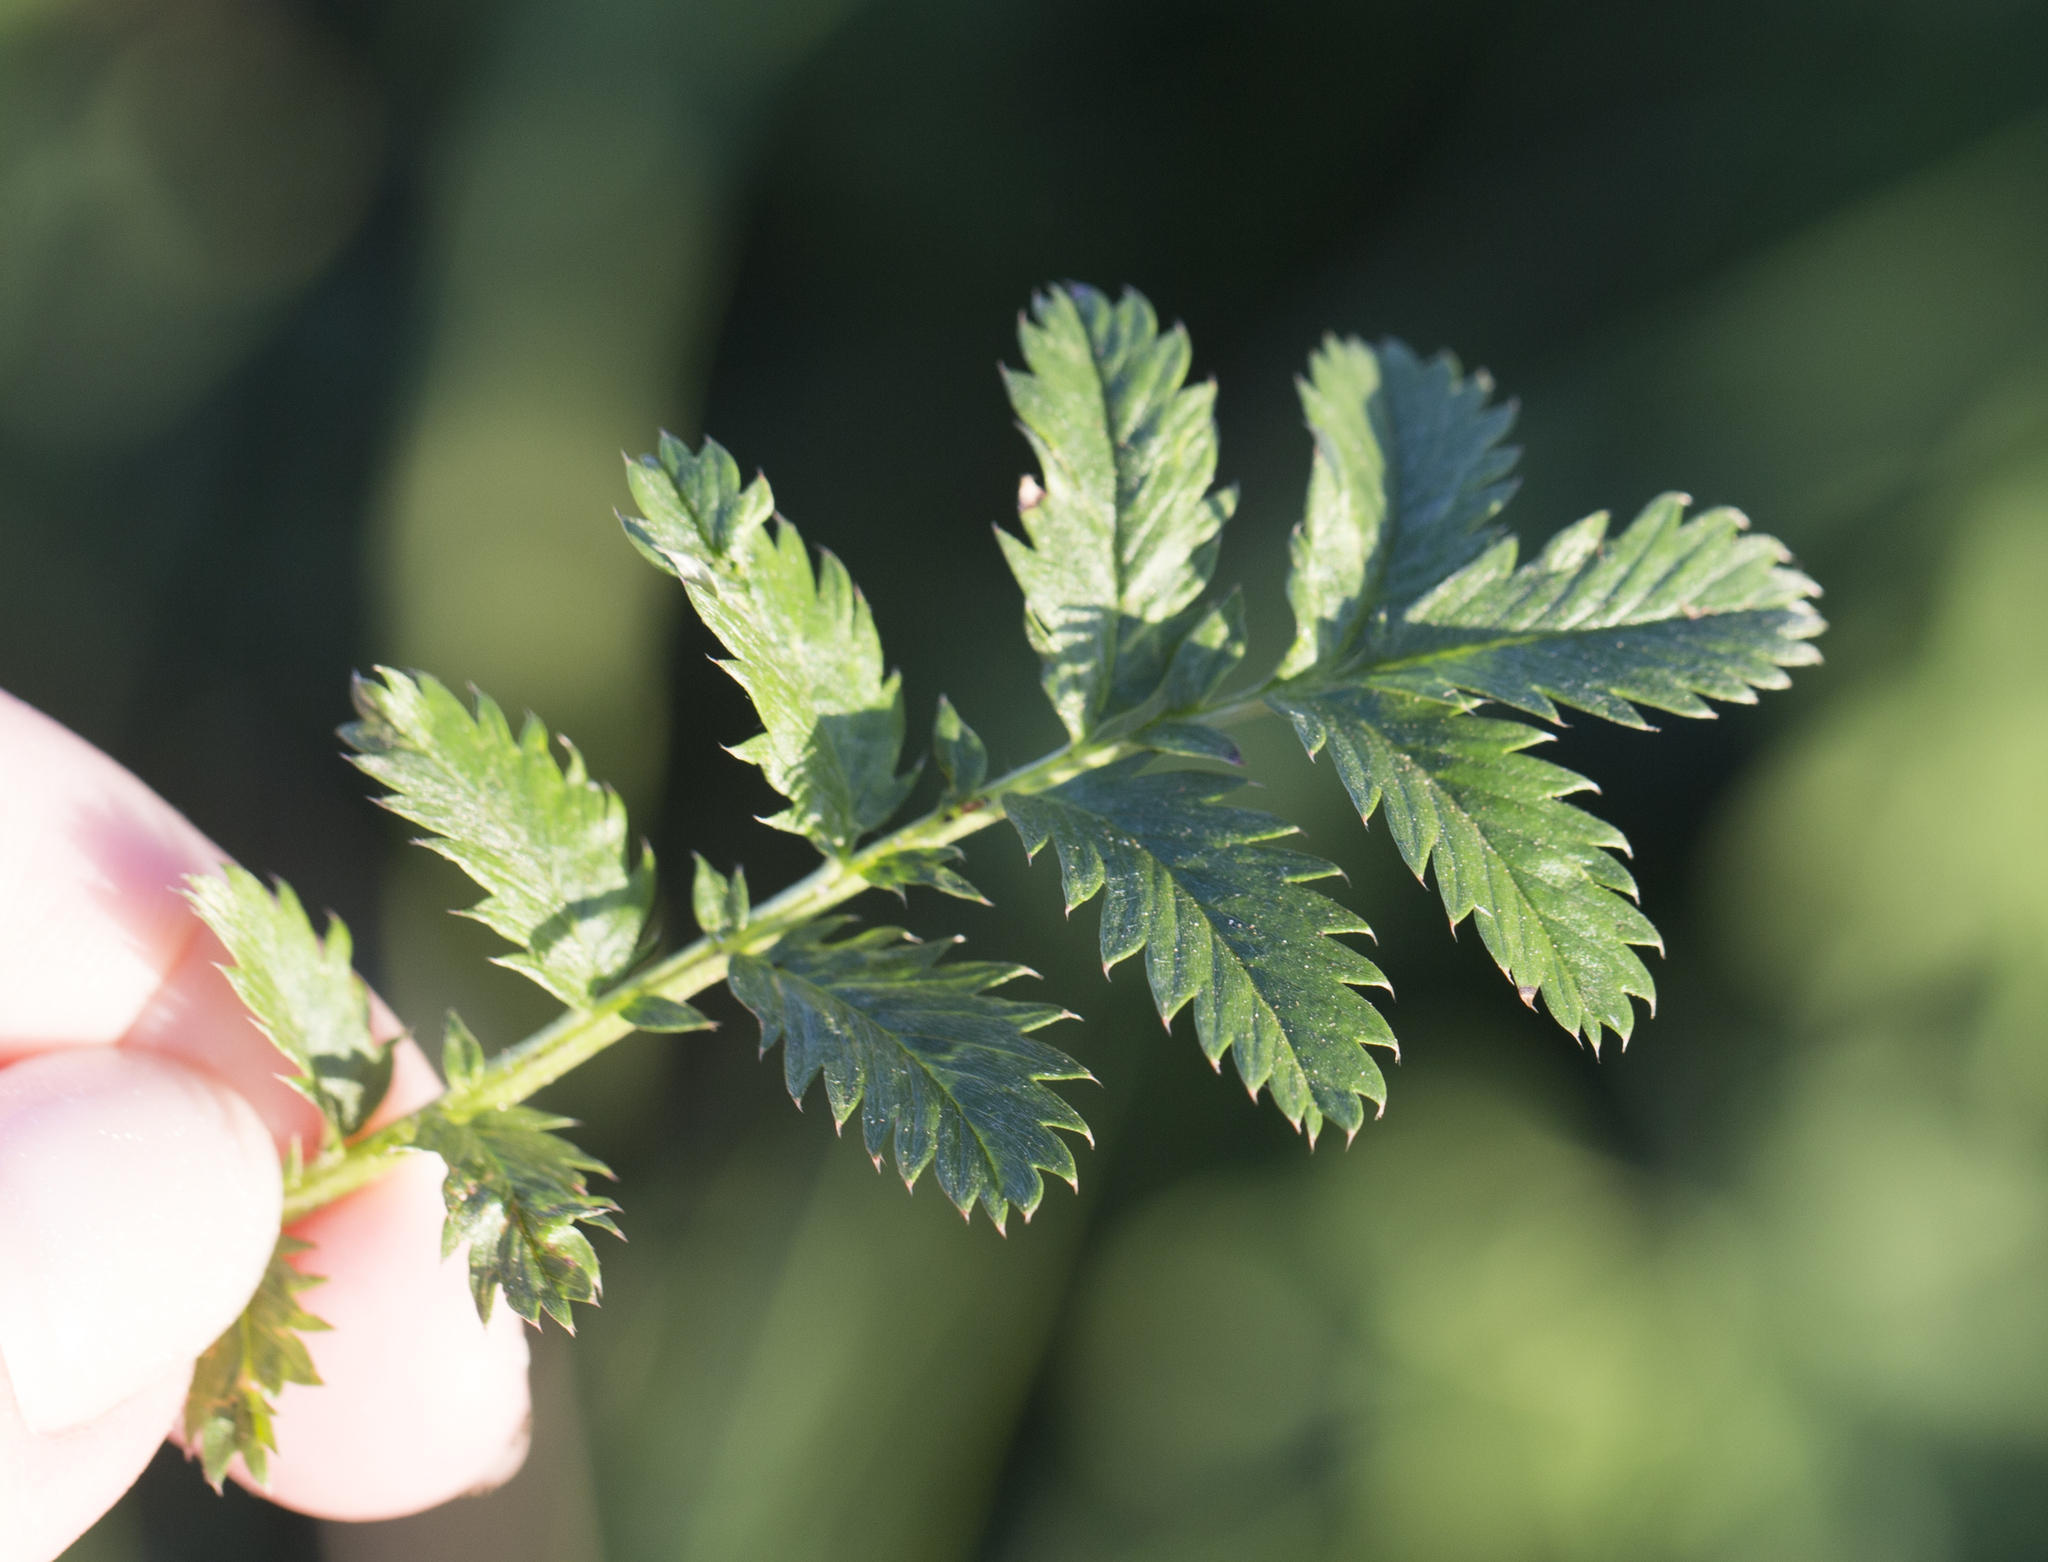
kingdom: Plantae
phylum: Tracheophyta
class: Magnoliopsida
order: Rosales
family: Rosaceae
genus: Argentina
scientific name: Argentina anserina
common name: Common silverweed
